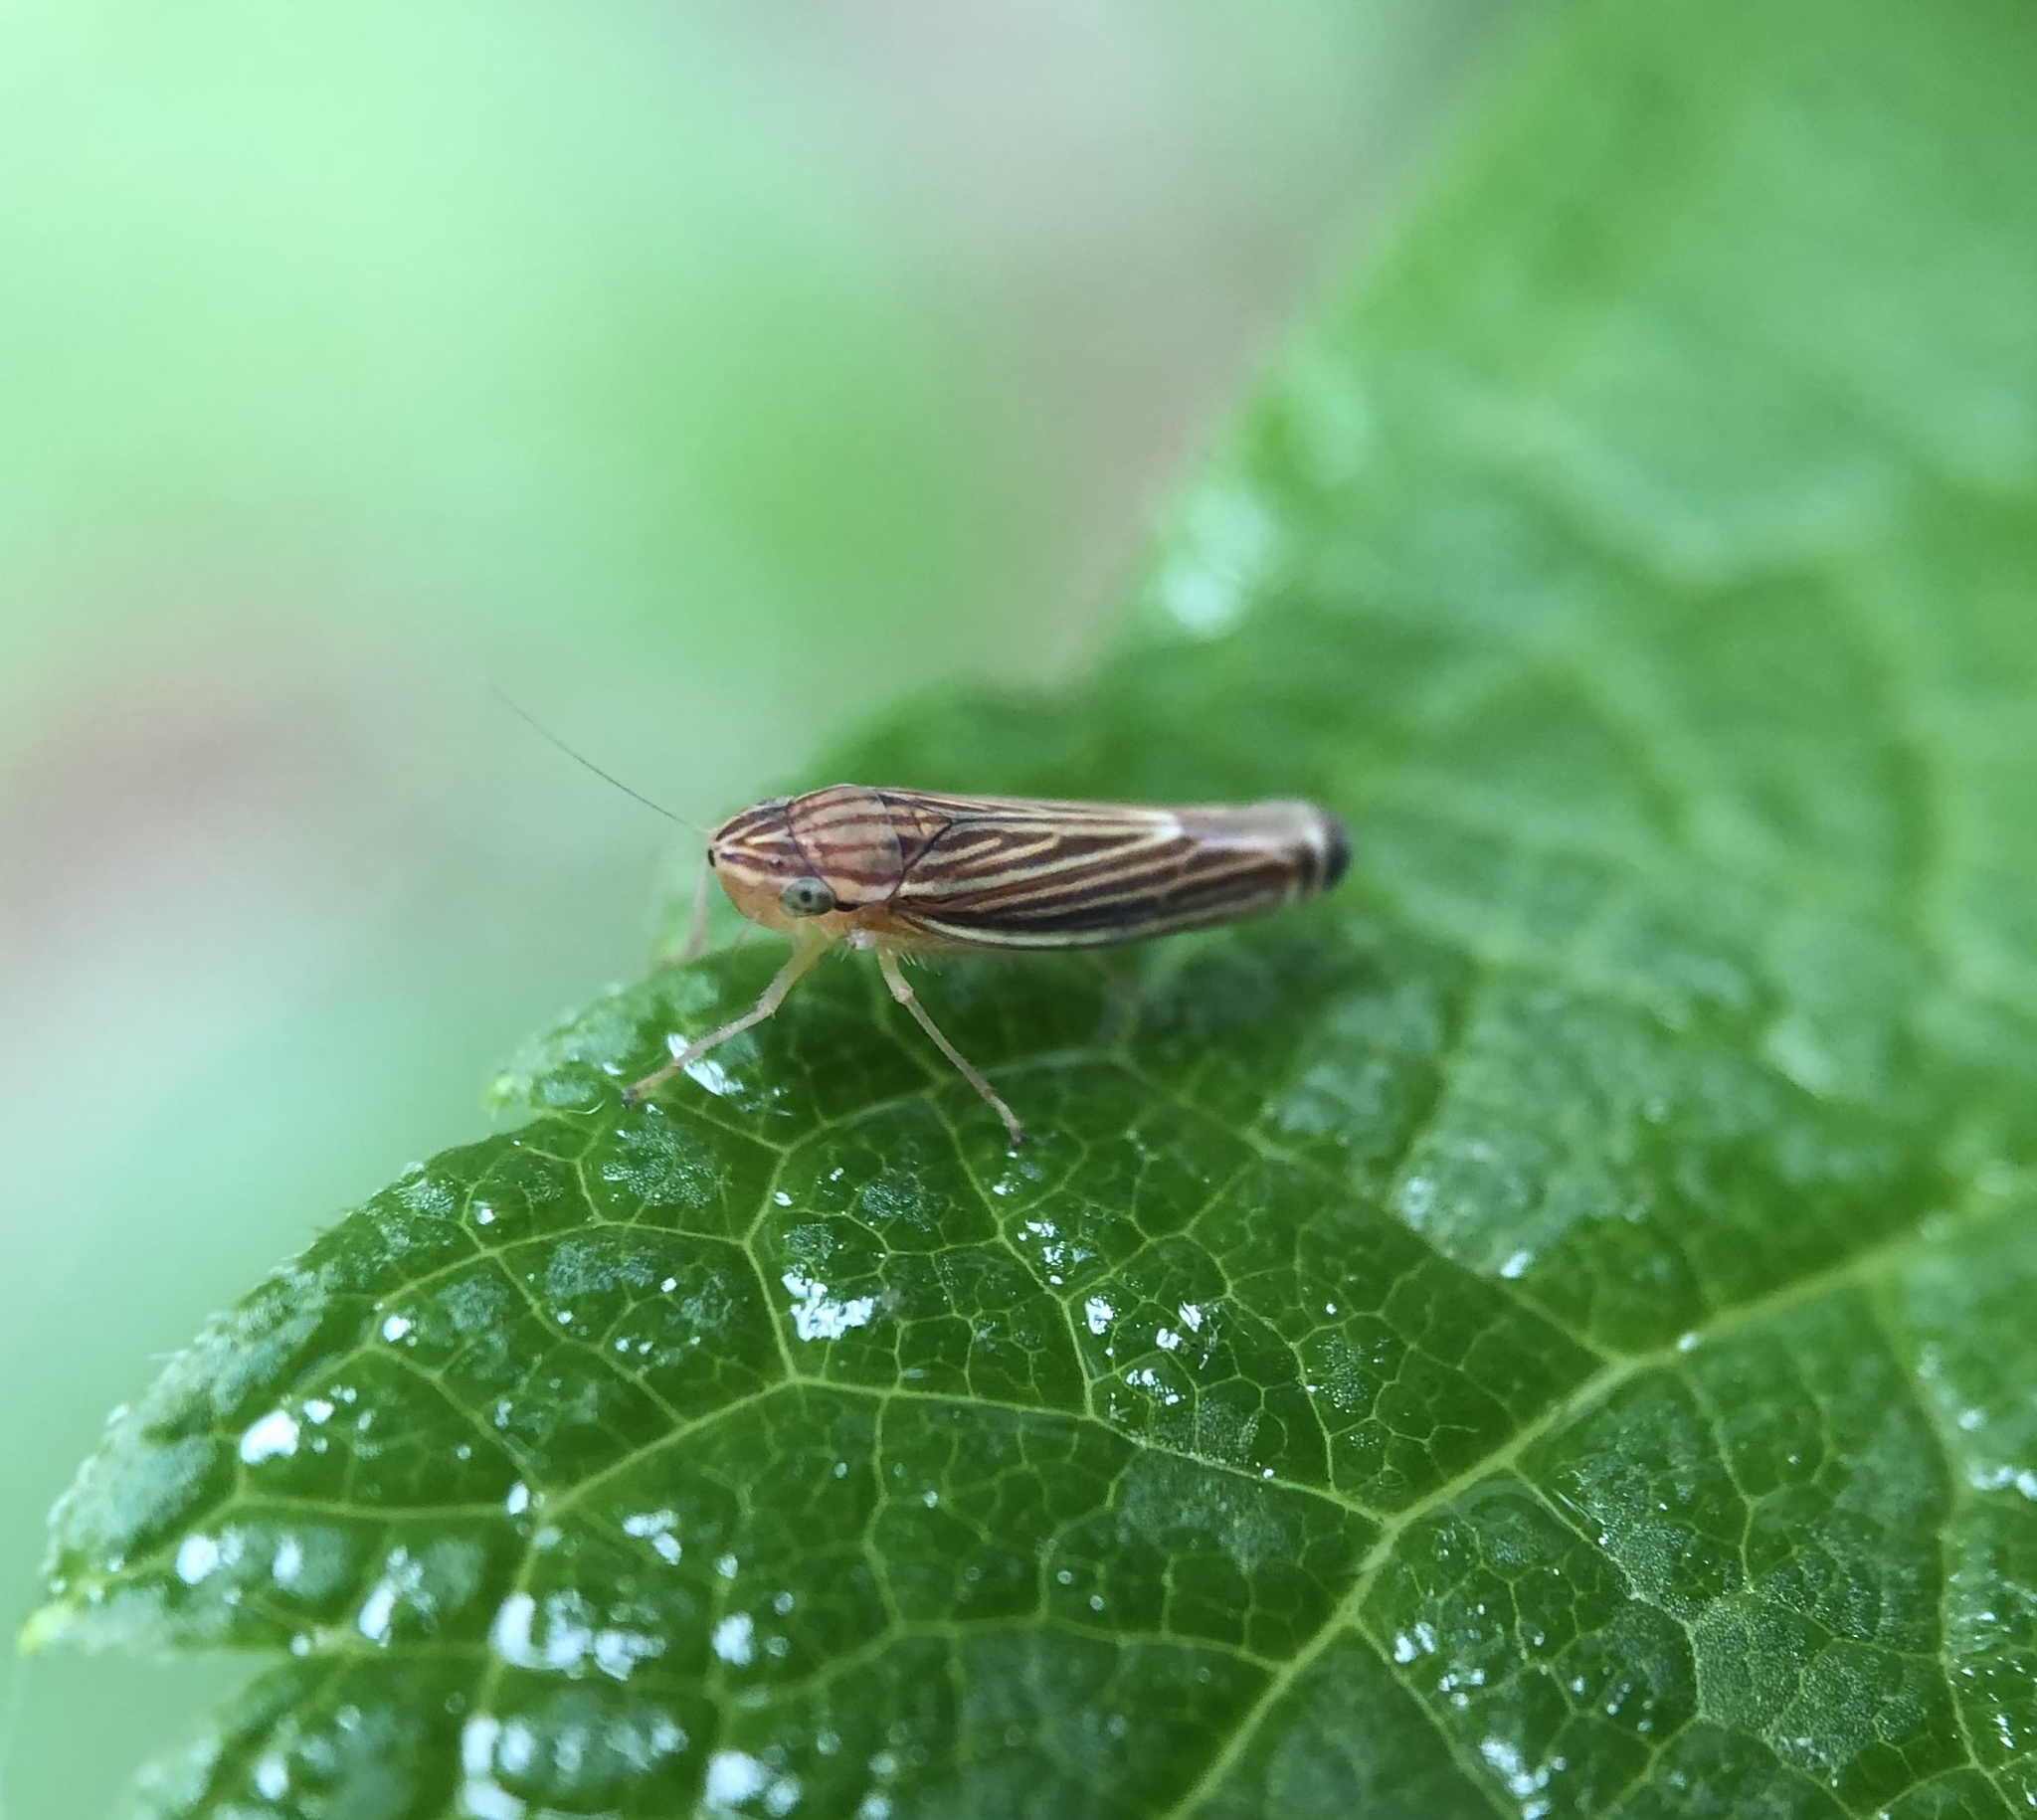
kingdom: Animalia
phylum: Arthropoda
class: Insecta
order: Hemiptera
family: Cicadellidae
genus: Sibovia
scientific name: Sibovia occatoria
